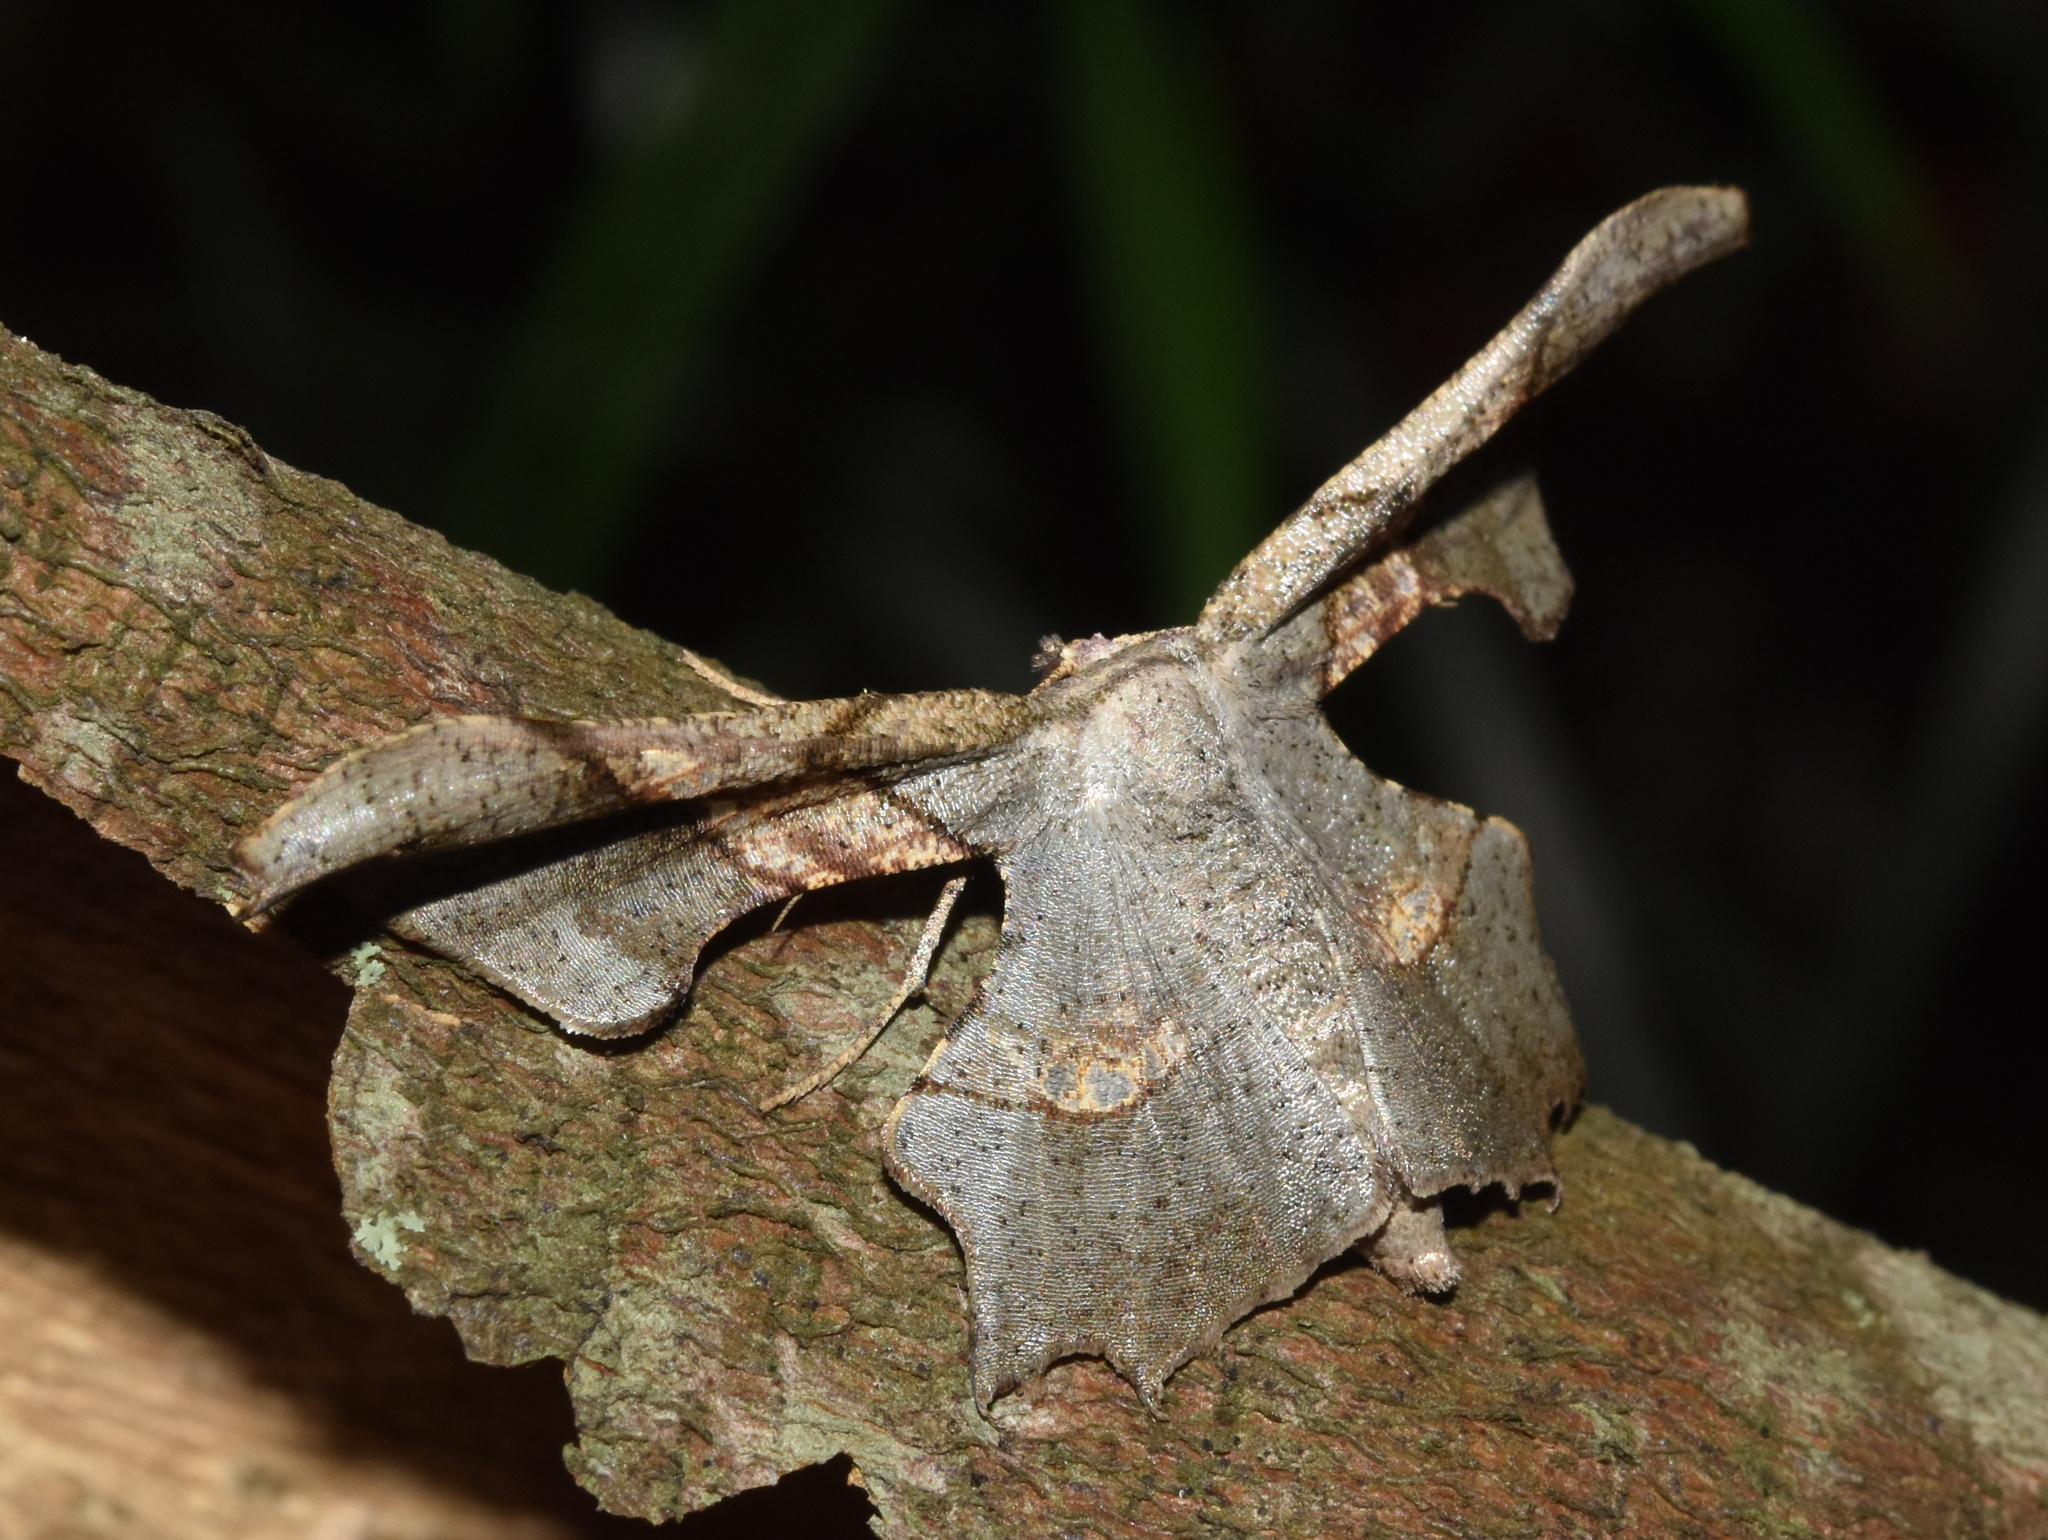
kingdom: Animalia
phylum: Arthropoda
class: Insecta
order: Lepidoptera
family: Geometridae
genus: Xenimpia
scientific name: Xenimpia erosa
